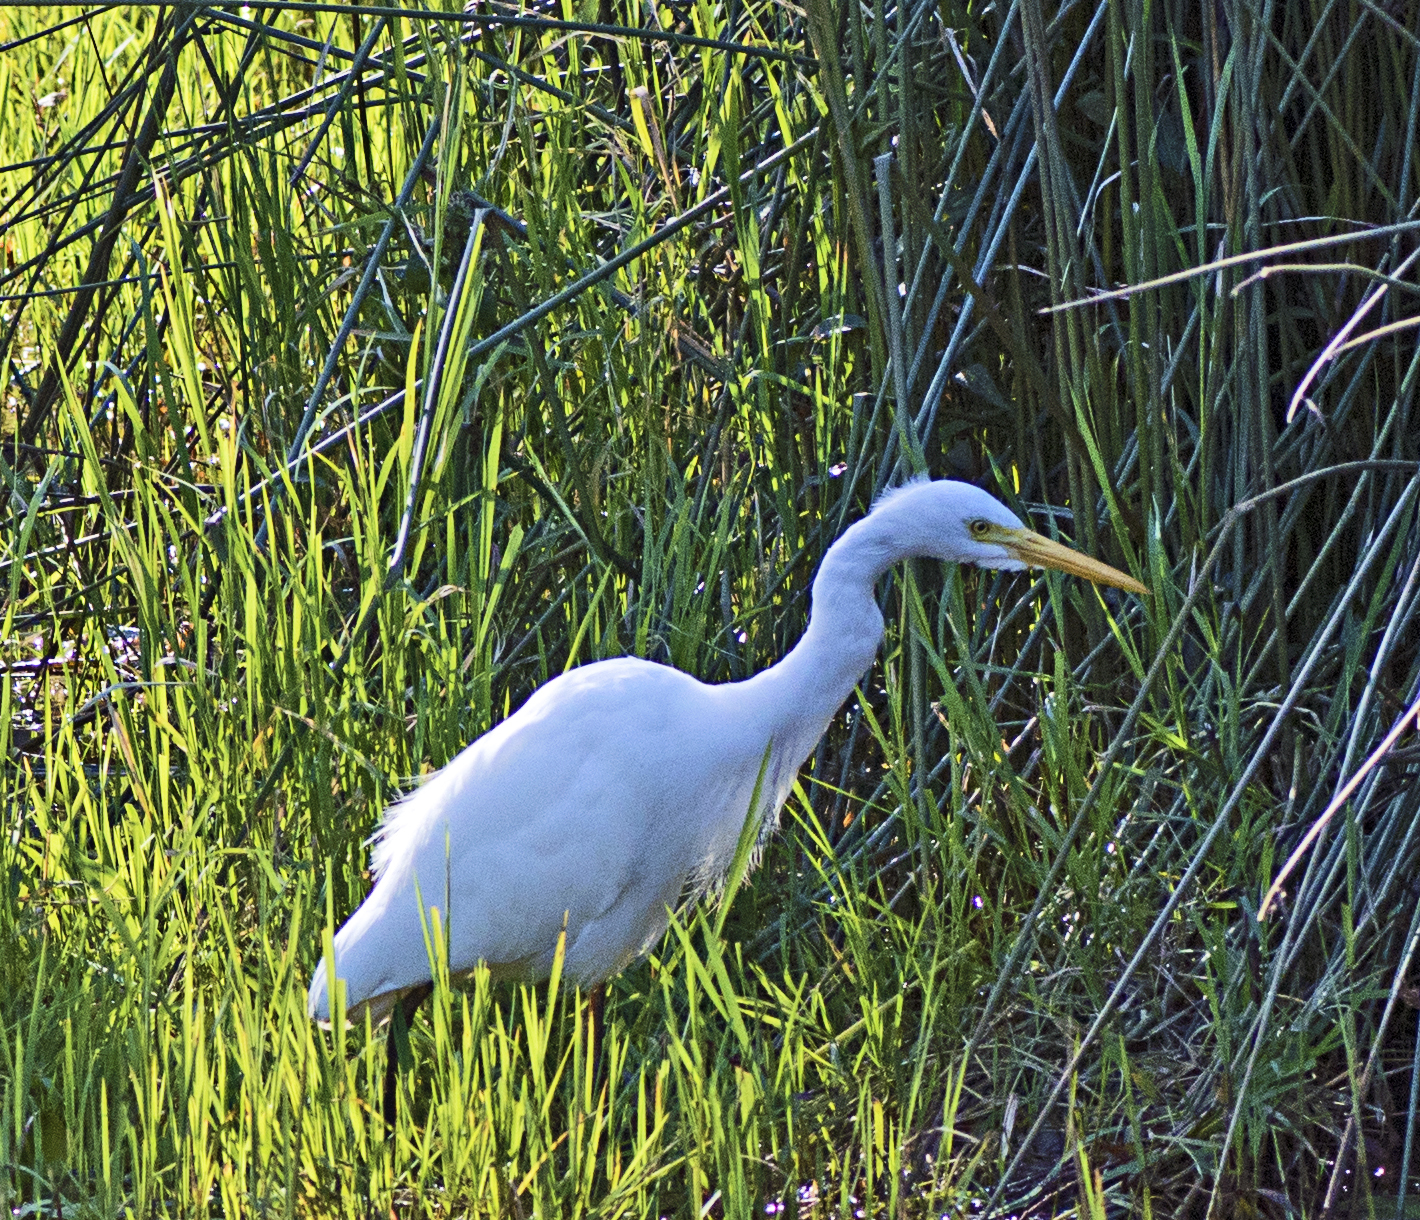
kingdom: Animalia
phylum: Chordata
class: Aves
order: Pelecaniformes
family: Ardeidae
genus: Egretta
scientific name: Egretta intermedia
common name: Intermediate egret
